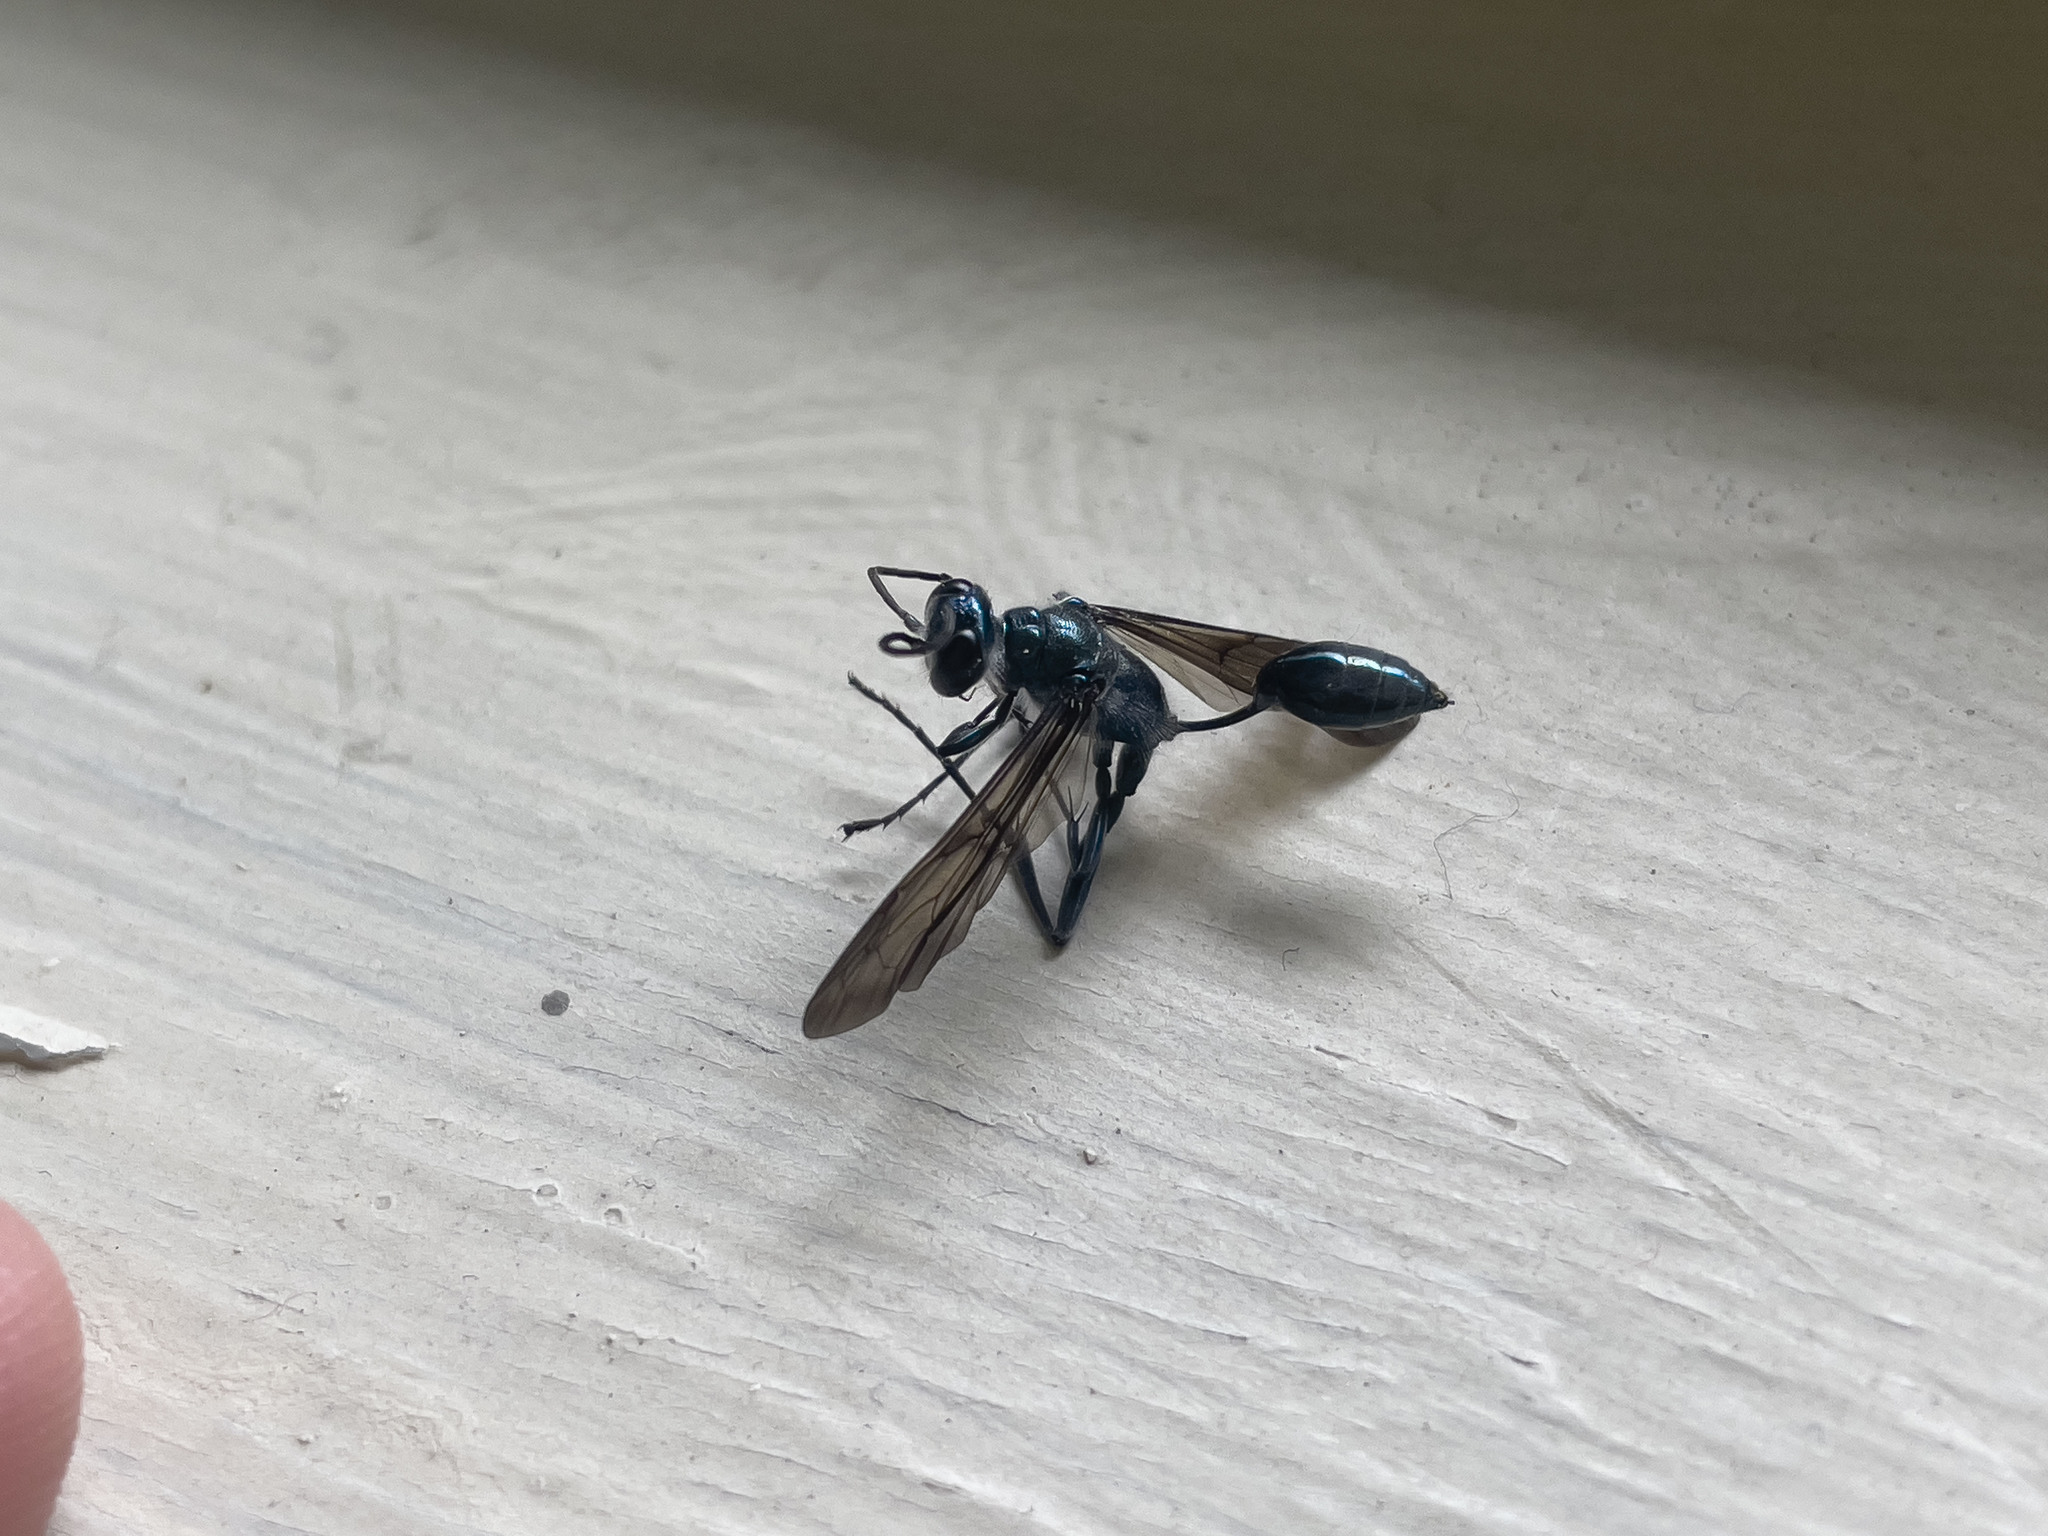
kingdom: Animalia
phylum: Arthropoda
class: Insecta
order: Hymenoptera
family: Sphecidae
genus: Chalybion
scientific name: Chalybion japonicum
